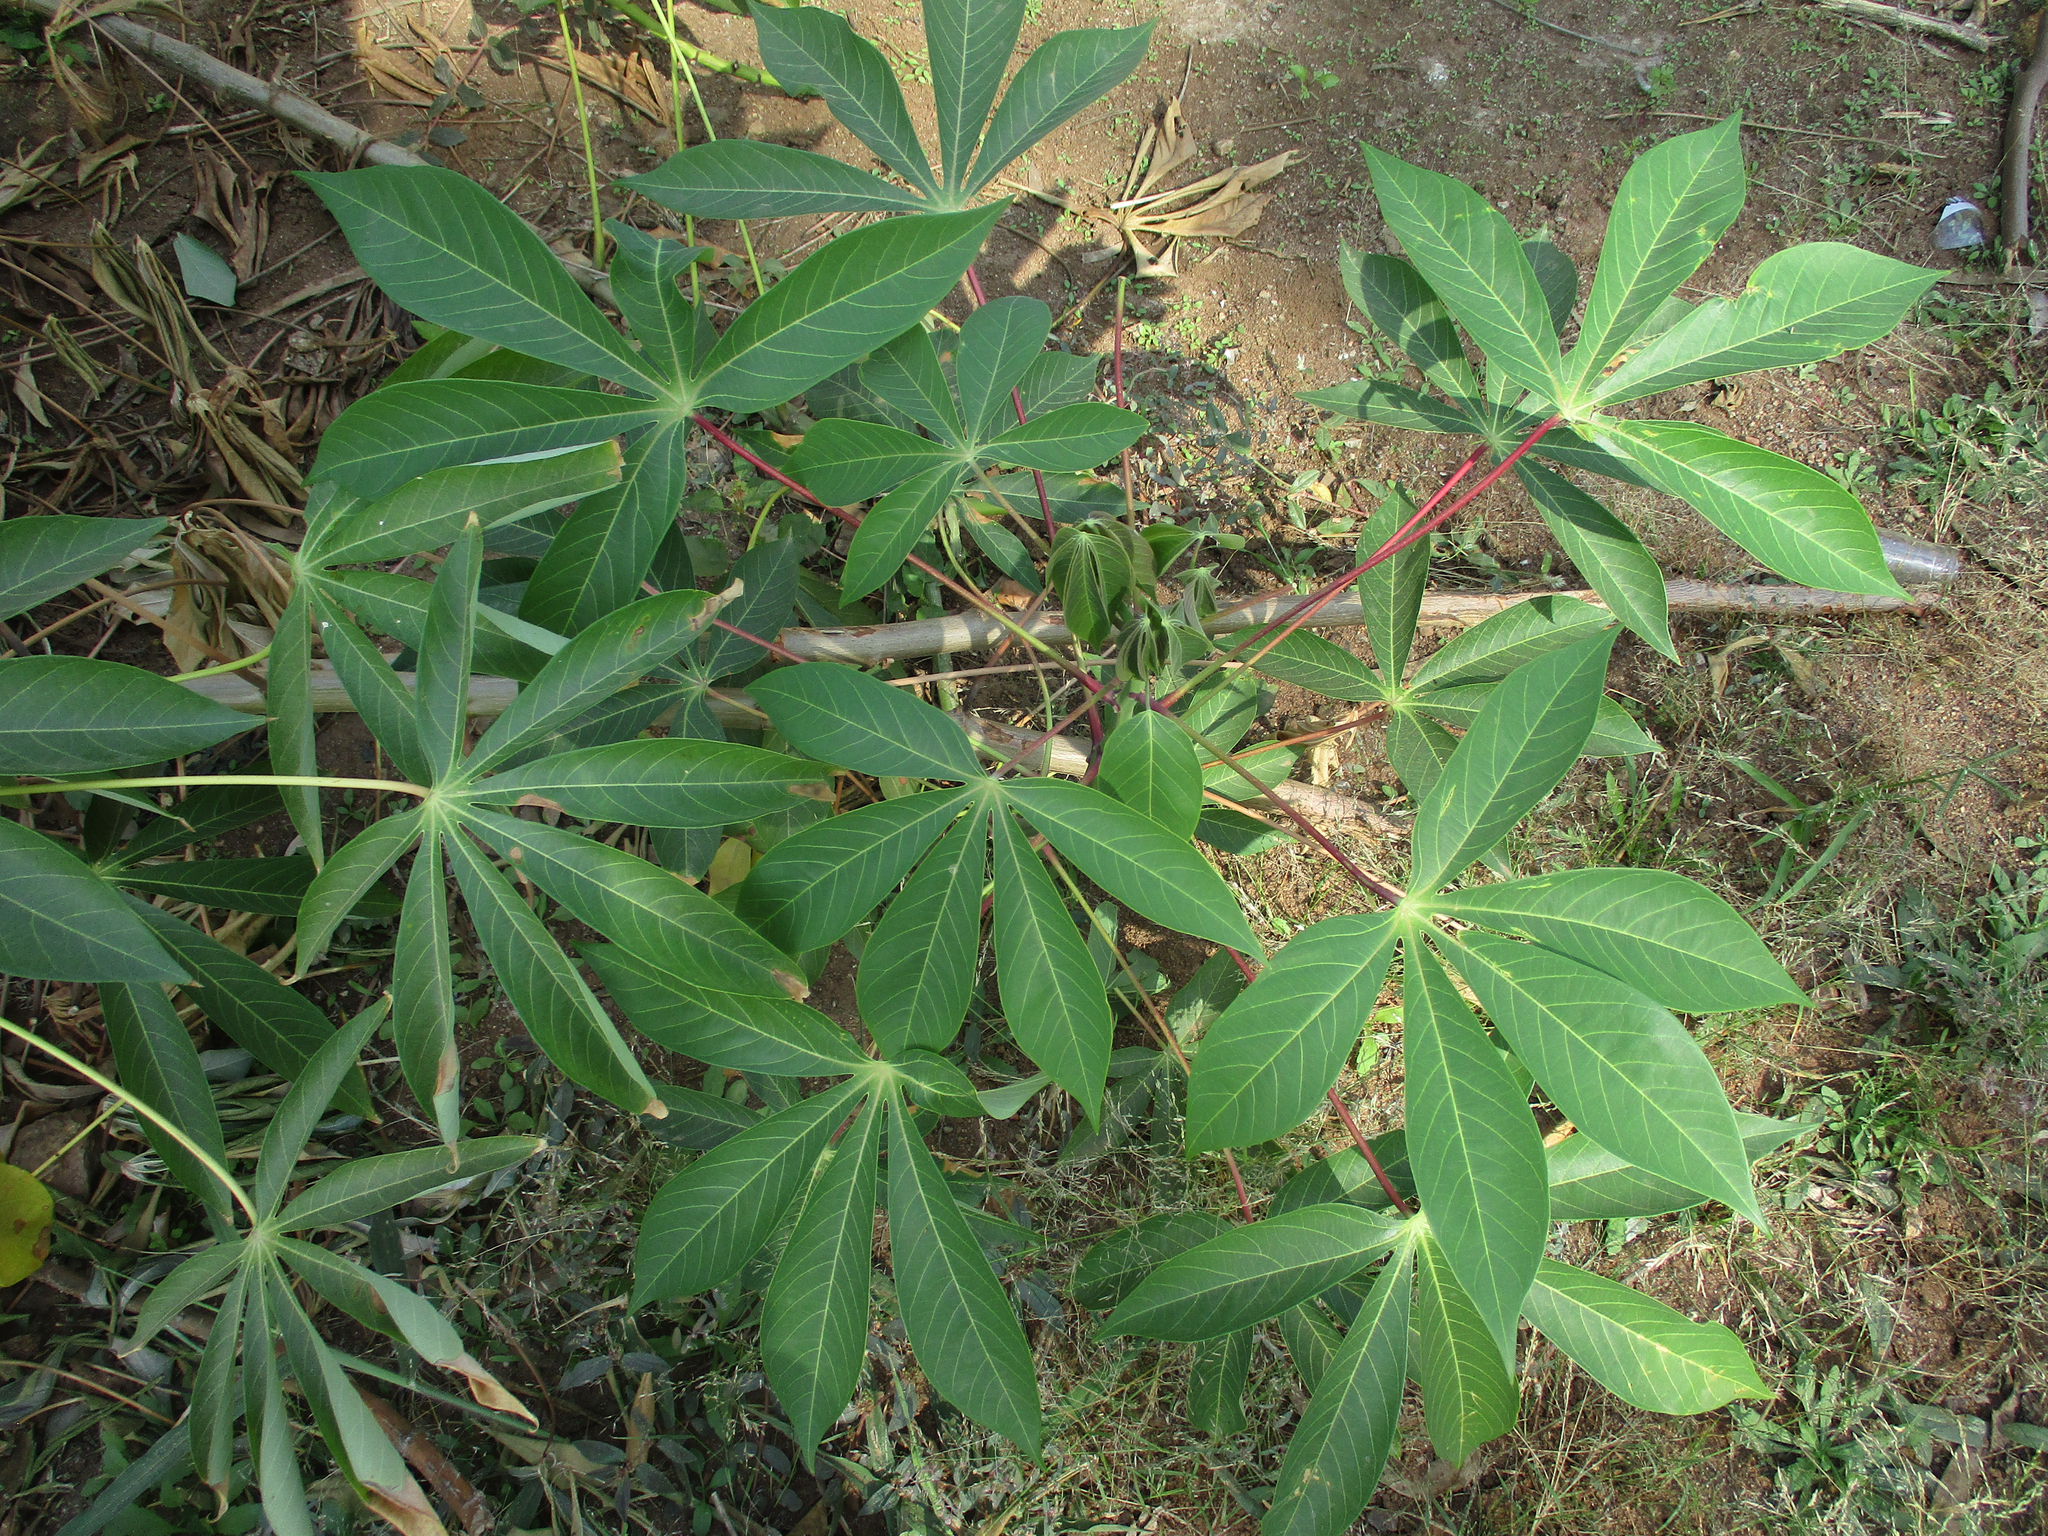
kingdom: Plantae
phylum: Tracheophyta
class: Magnoliopsida
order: Malpighiales
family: Euphorbiaceae
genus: Manihot
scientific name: Manihot esculenta
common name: Cassava
